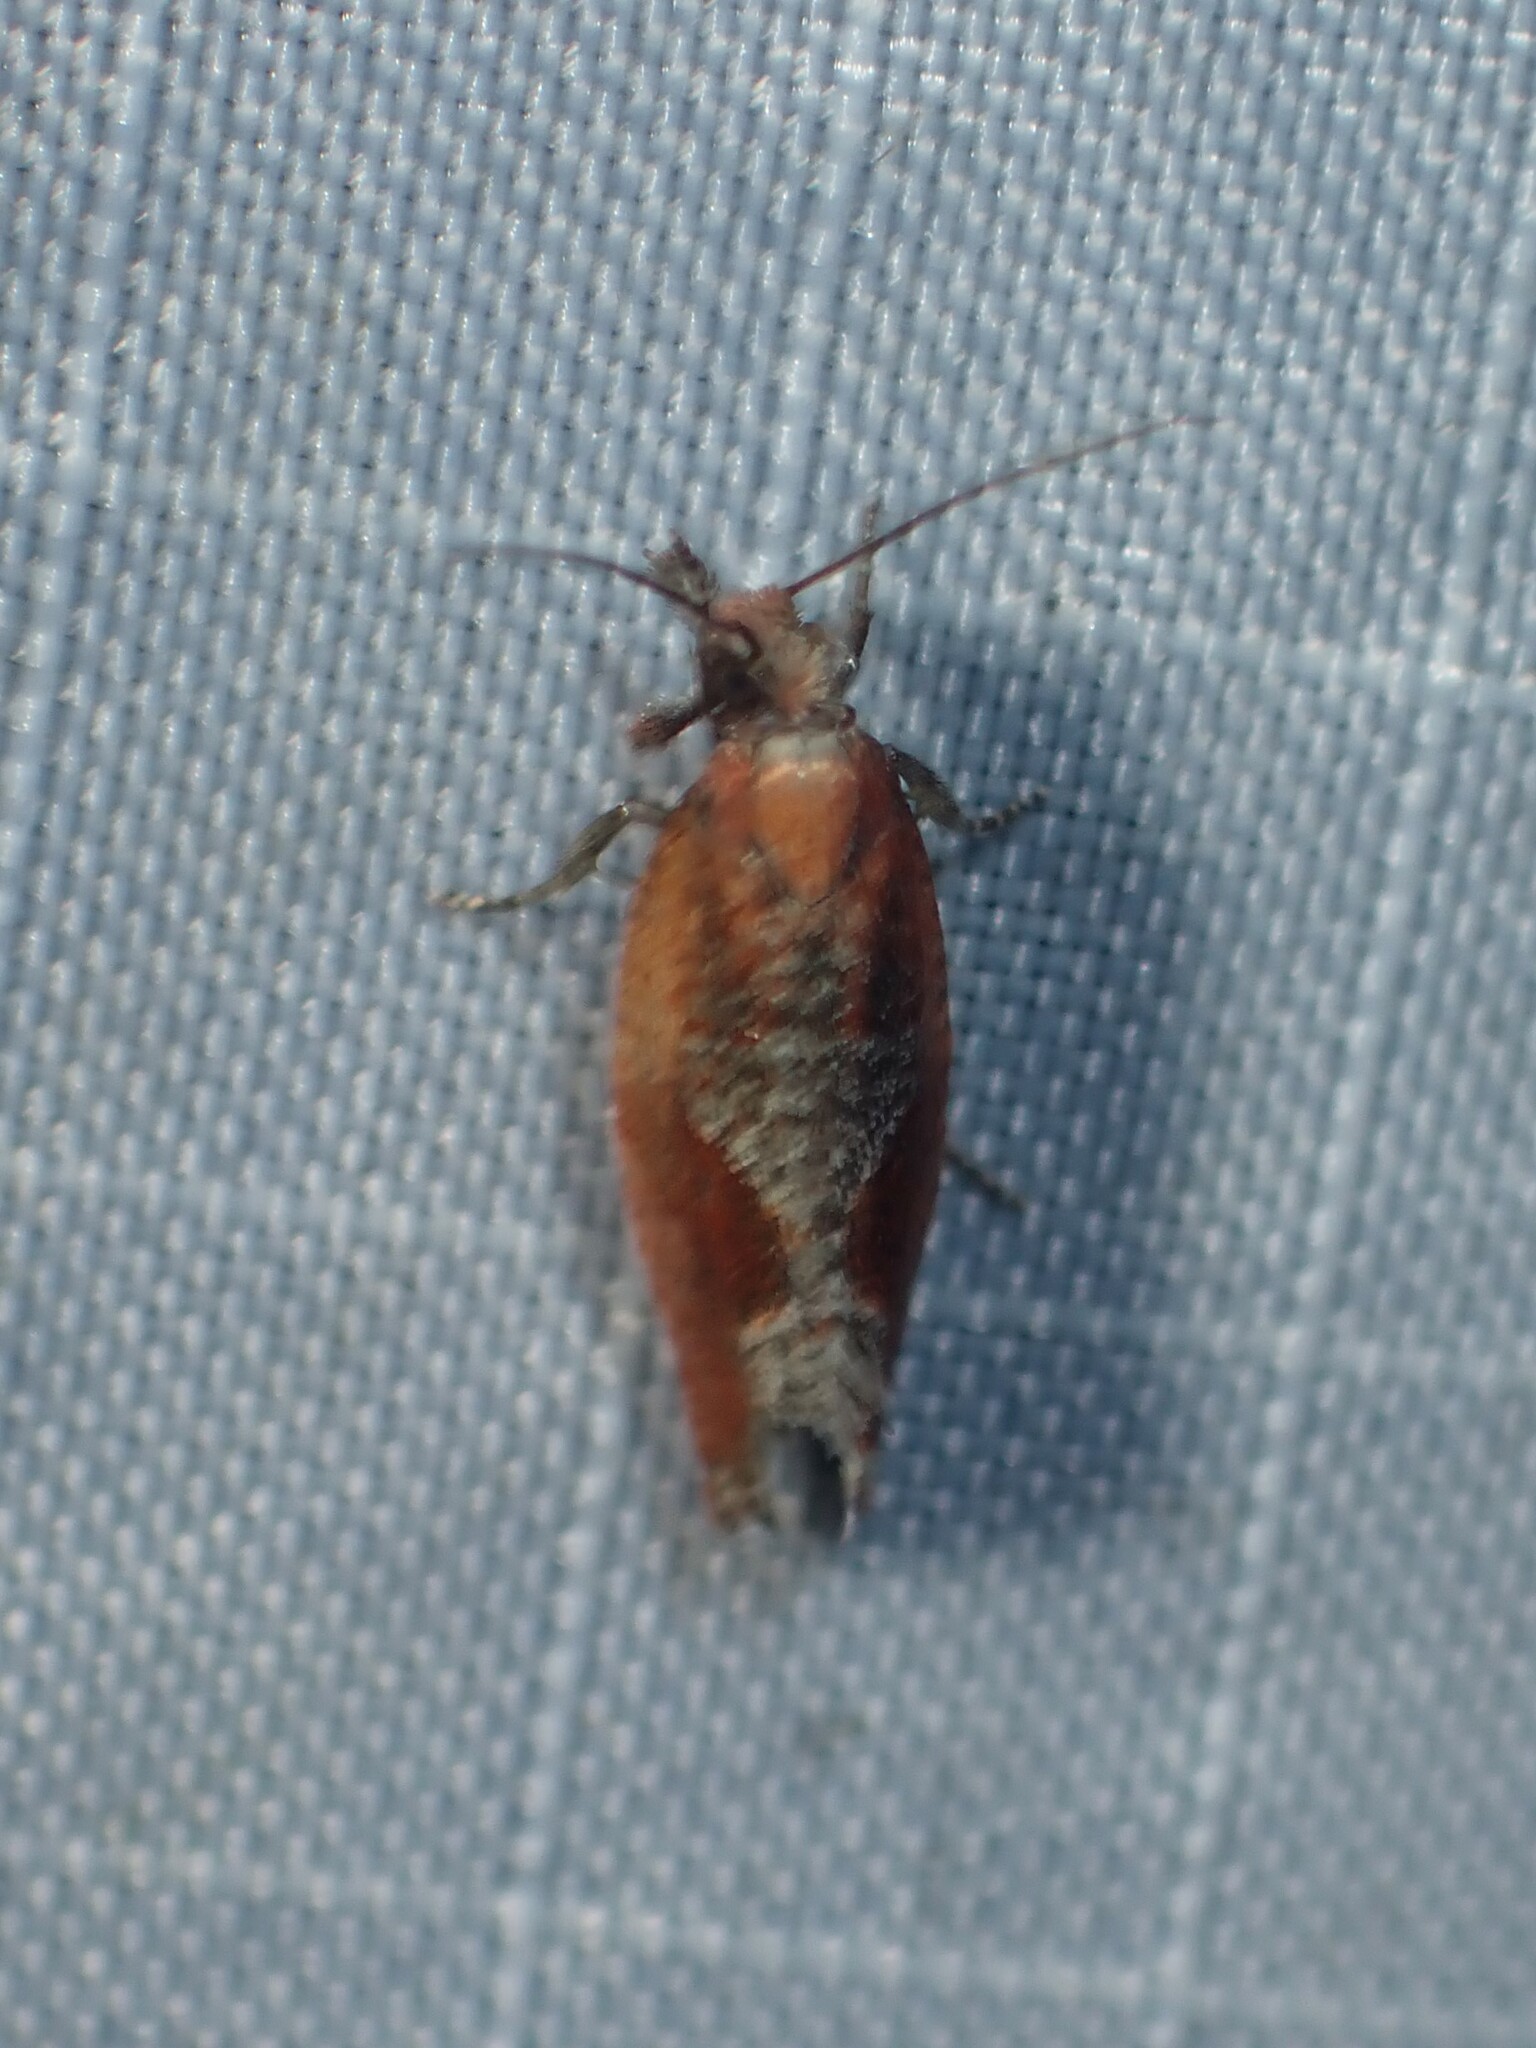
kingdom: Animalia
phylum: Arthropoda
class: Insecta
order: Lepidoptera
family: Tortricidae
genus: Epinotia
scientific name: Epinotia septemberana
